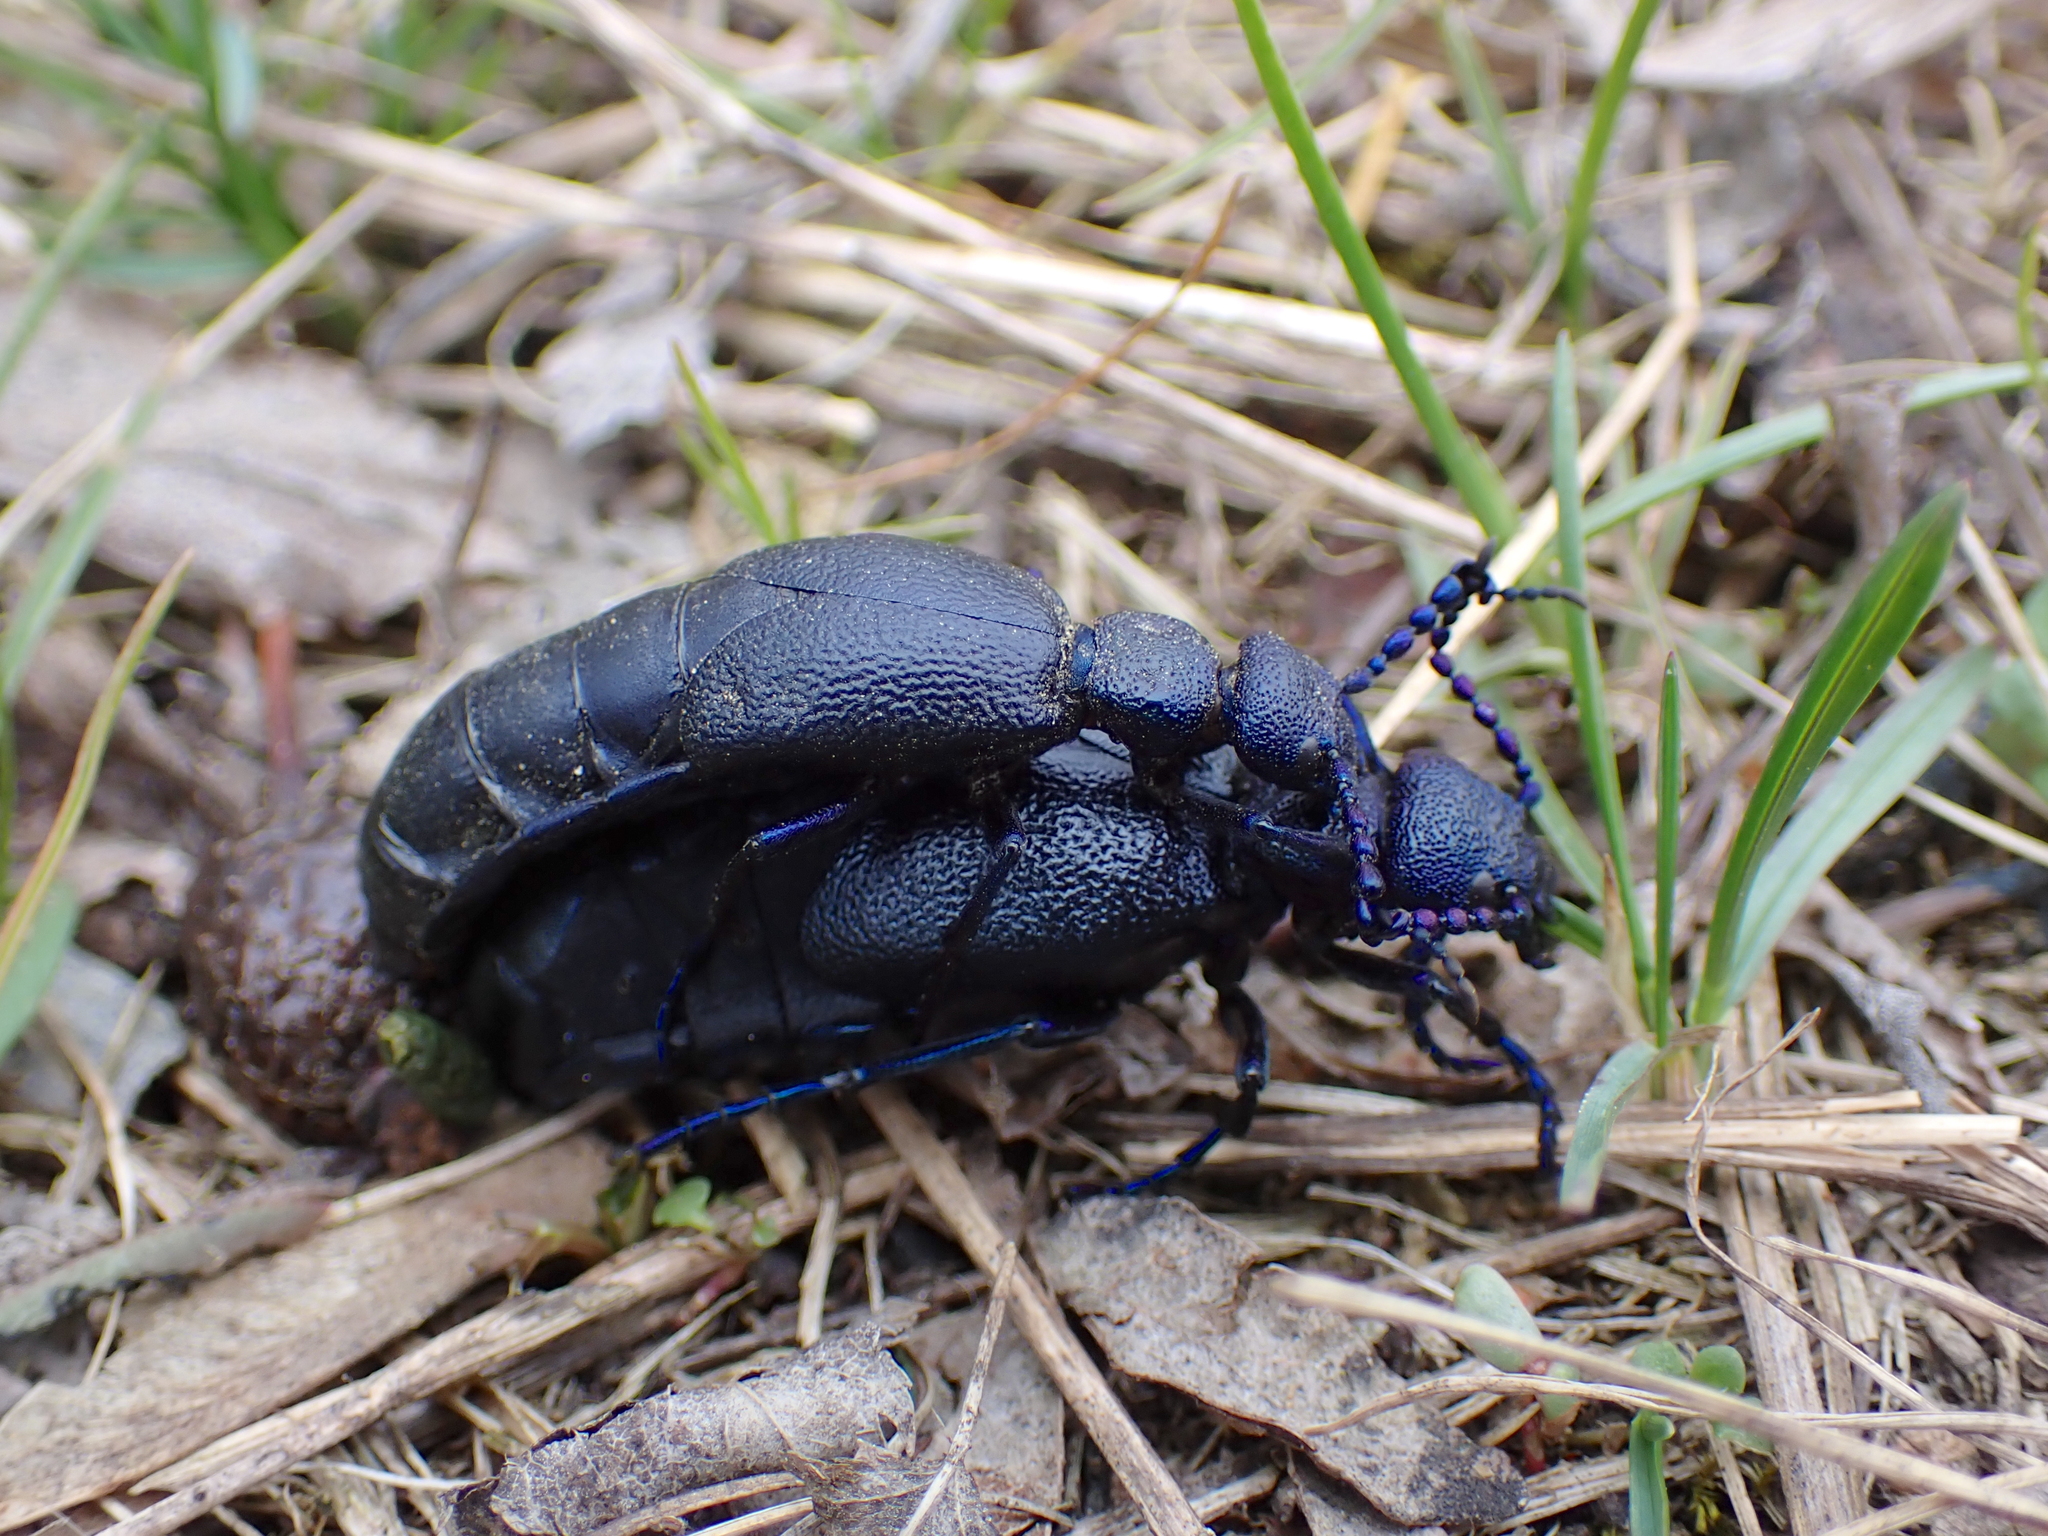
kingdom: Animalia
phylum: Arthropoda
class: Insecta
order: Coleoptera
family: Meloidae
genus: Meloe
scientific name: Meloe proscarabaeus
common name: Black oil-beetle
